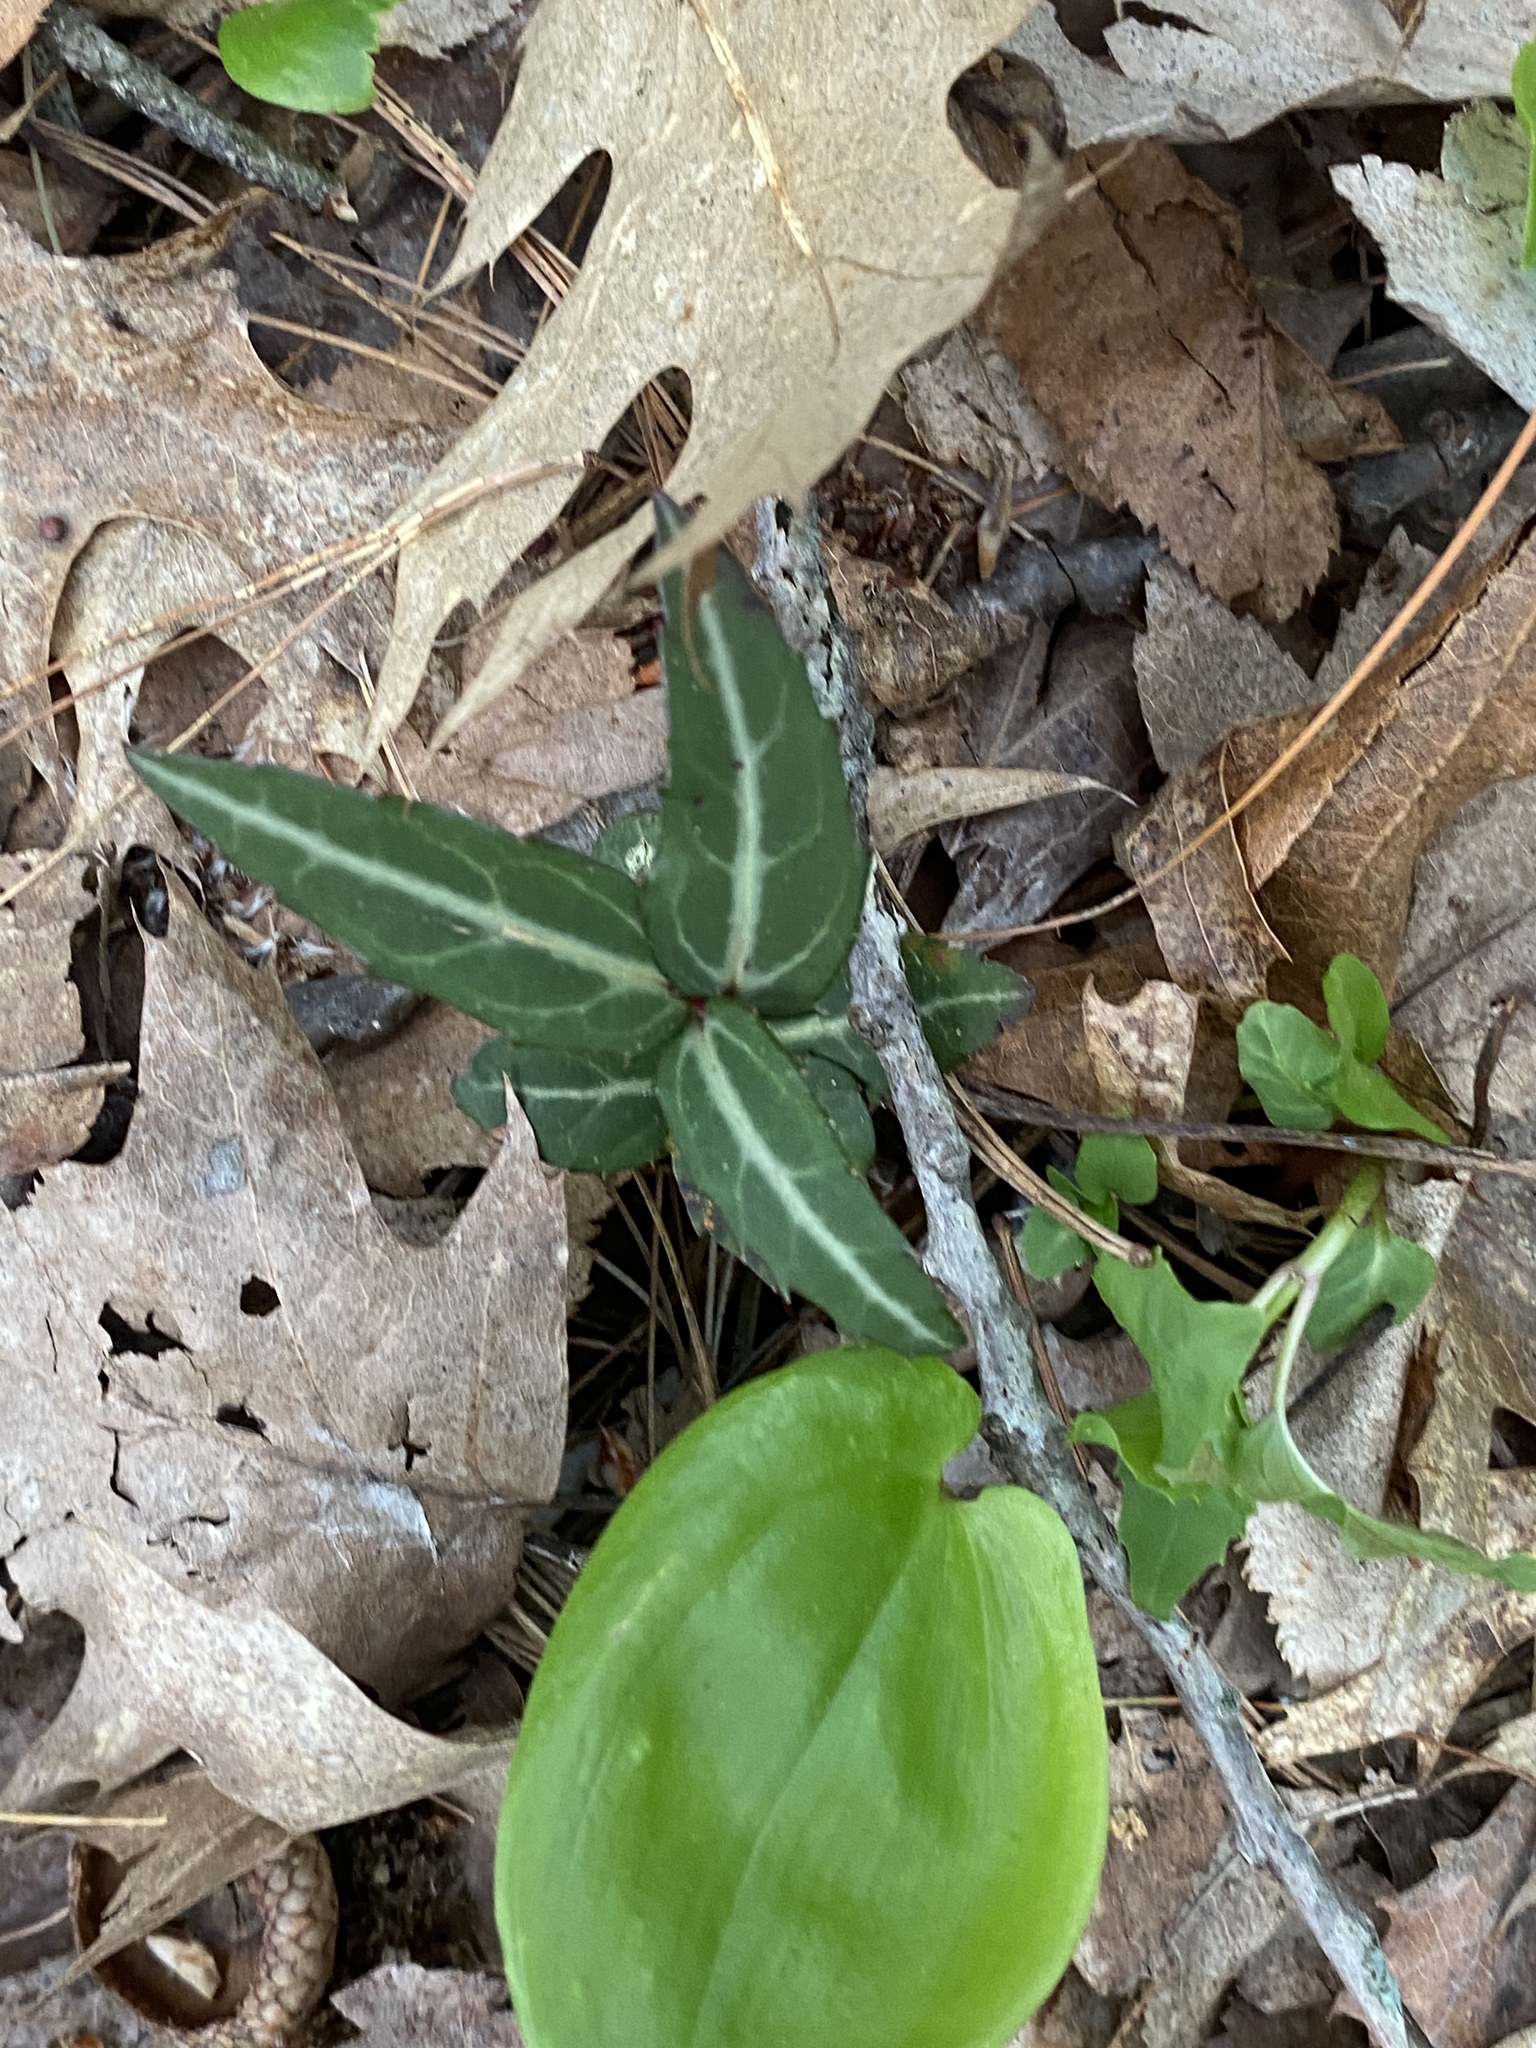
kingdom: Plantae
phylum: Tracheophyta
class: Magnoliopsida
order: Ericales
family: Ericaceae
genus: Chimaphila
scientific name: Chimaphila maculata
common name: Spotted pipsissewa
